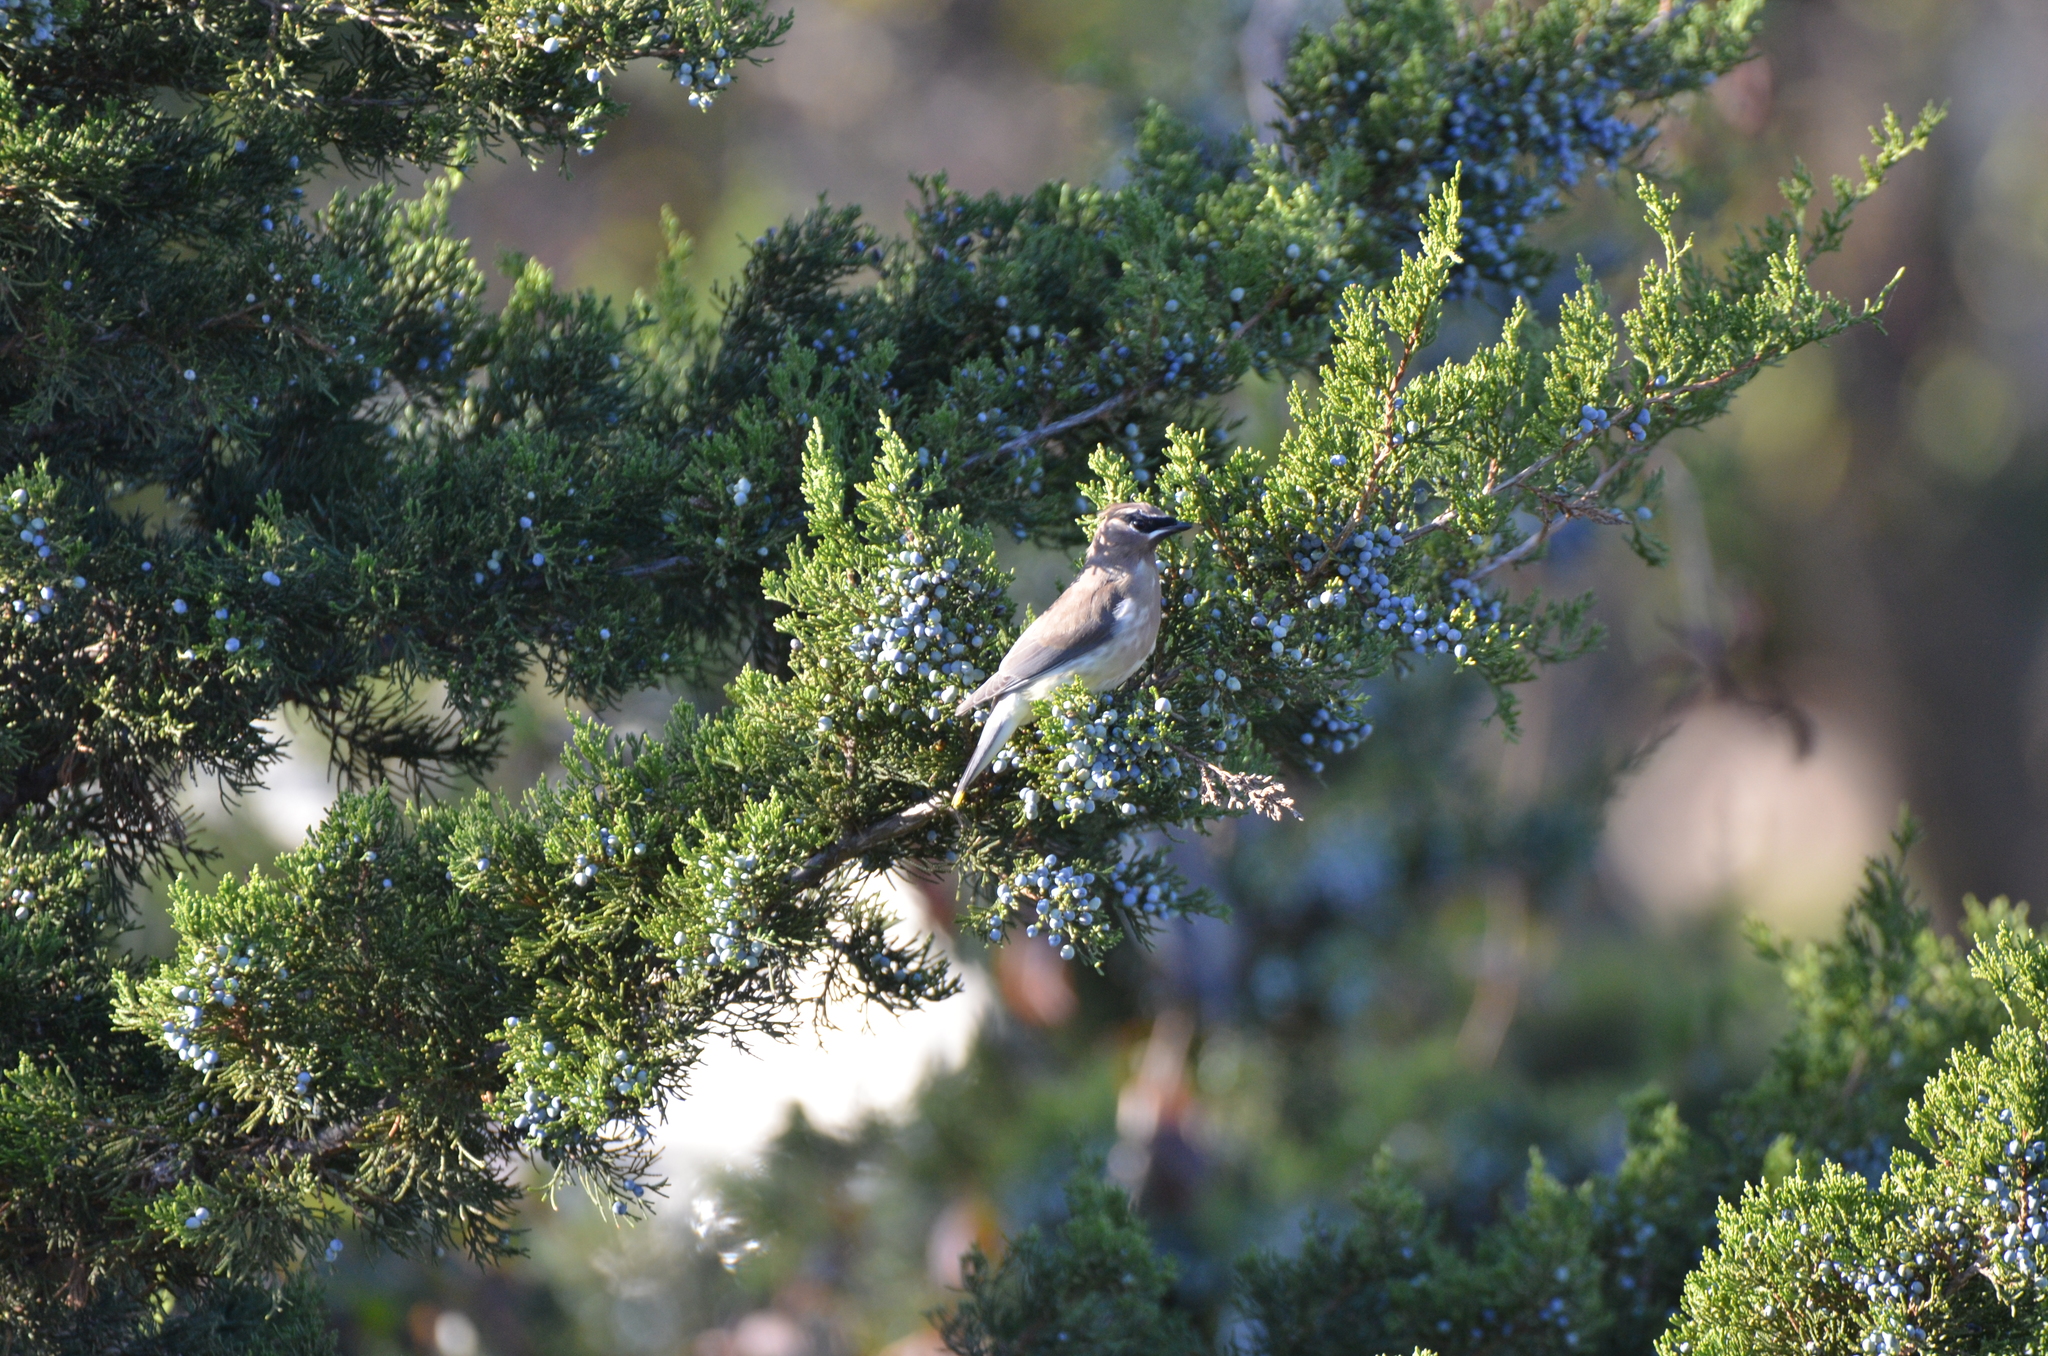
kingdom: Animalia
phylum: Chordata
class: Aves
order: Passeriformes
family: Bombycillidae
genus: Bombycilla
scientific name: Bombycilla cedrorum
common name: Cedar waxwing
